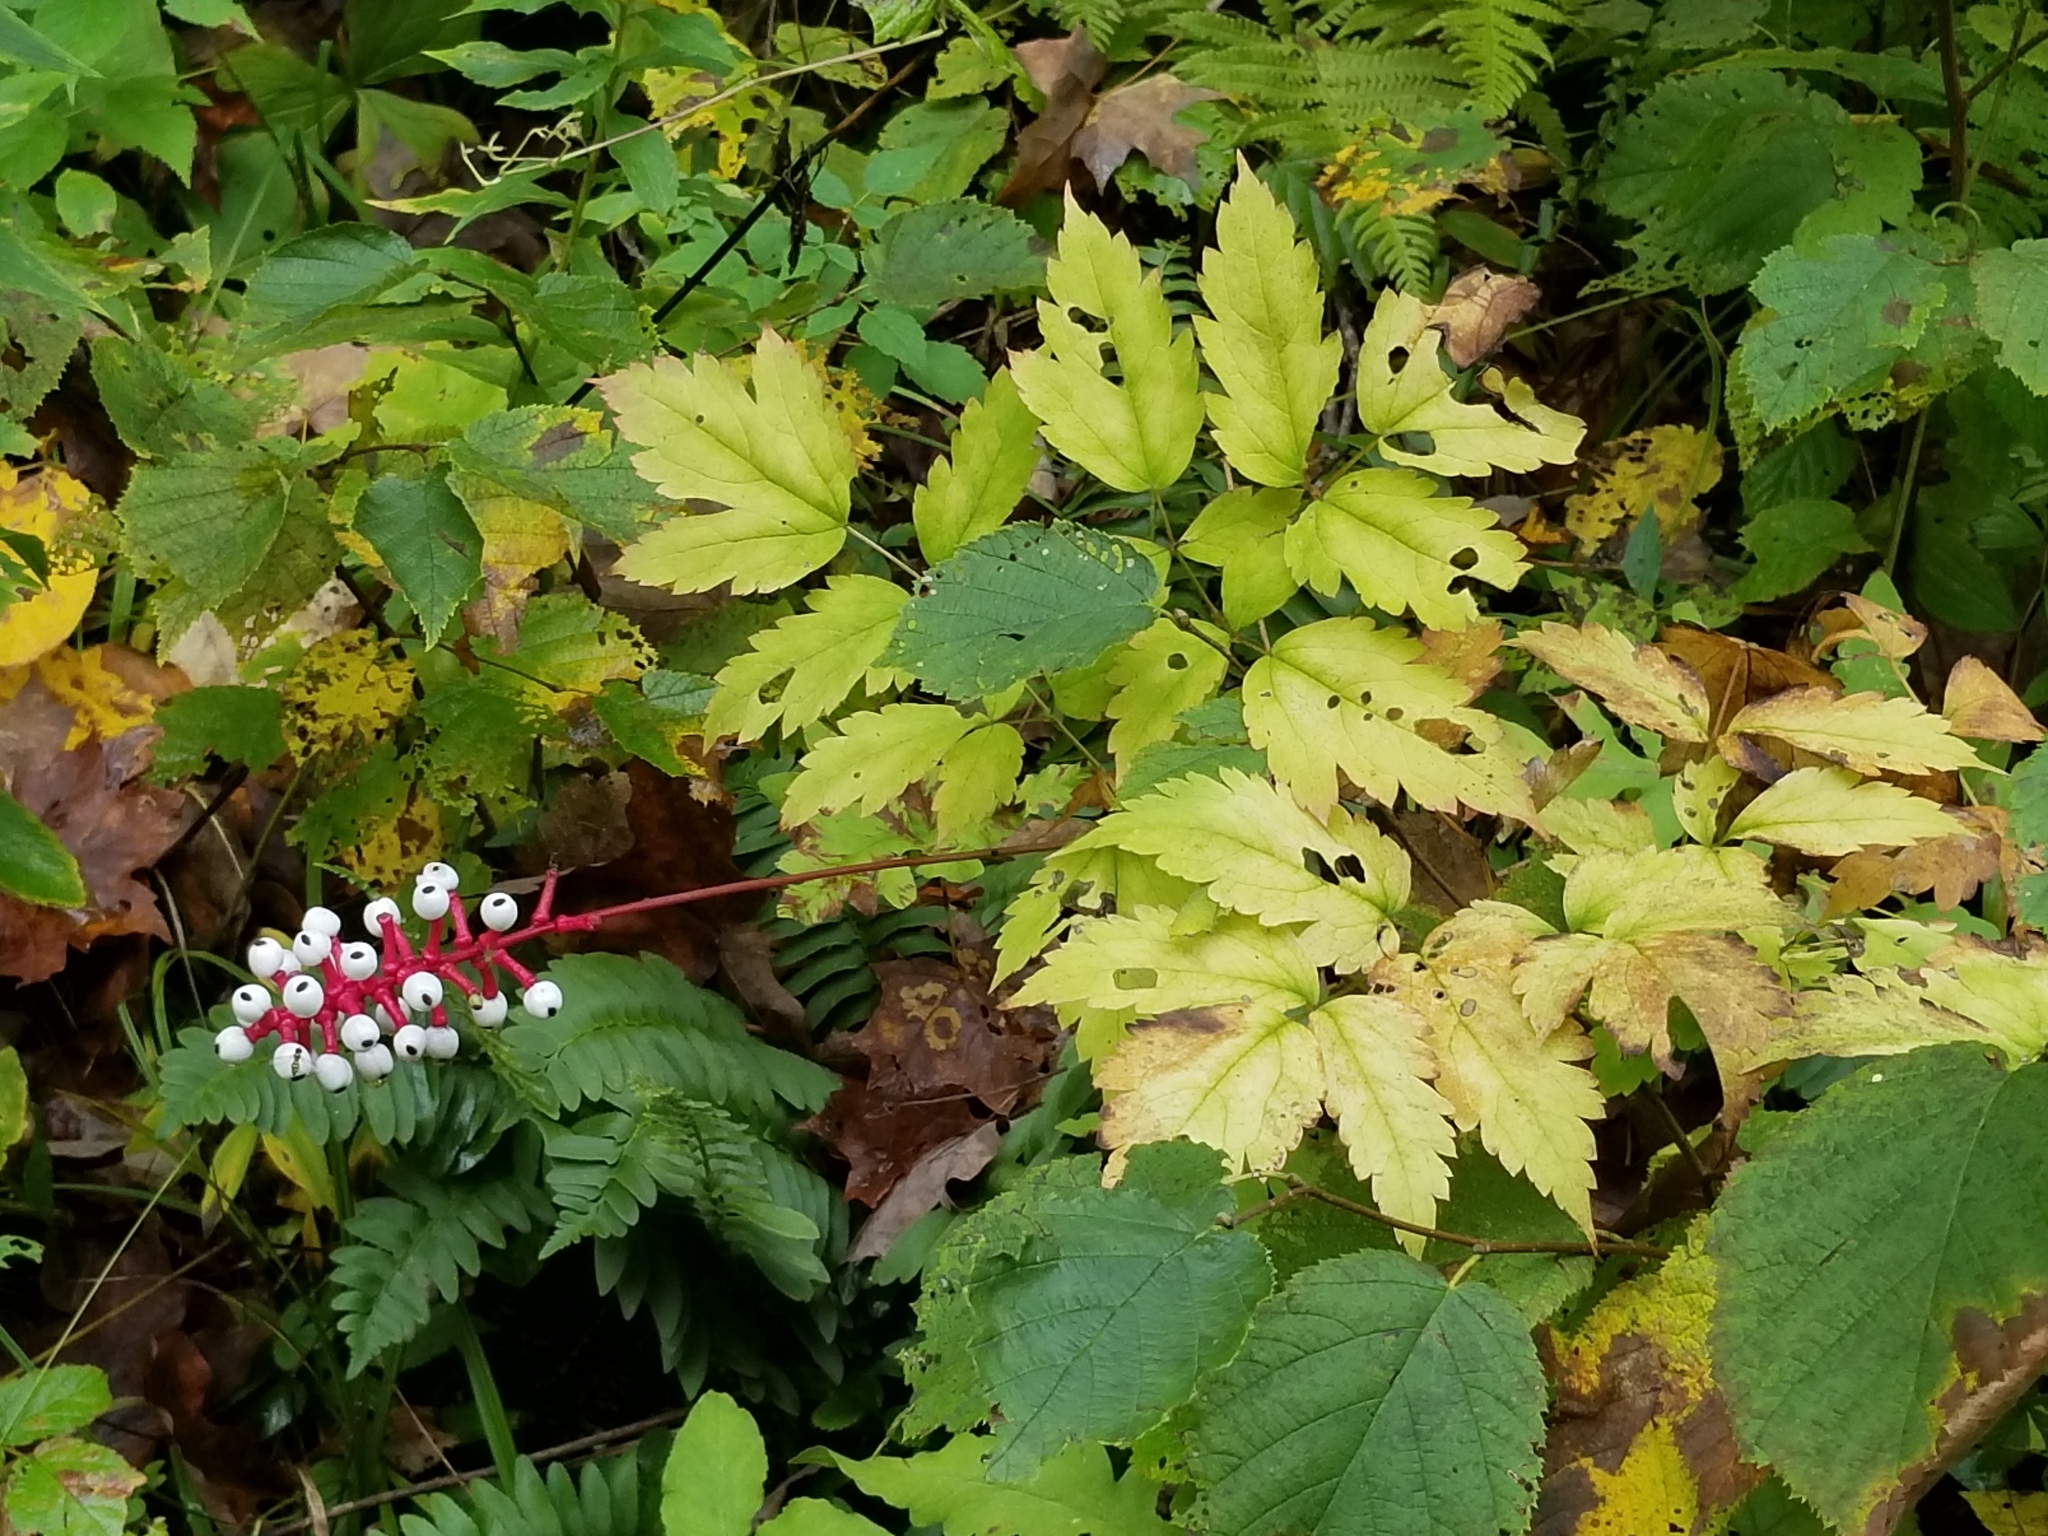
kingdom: Plantae
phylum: Tracheophyta
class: Magnoliopsida
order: Ranunculales
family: Ranunculaceae
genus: Actaea
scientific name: Actaea pachypoda
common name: Doll's-eyes
